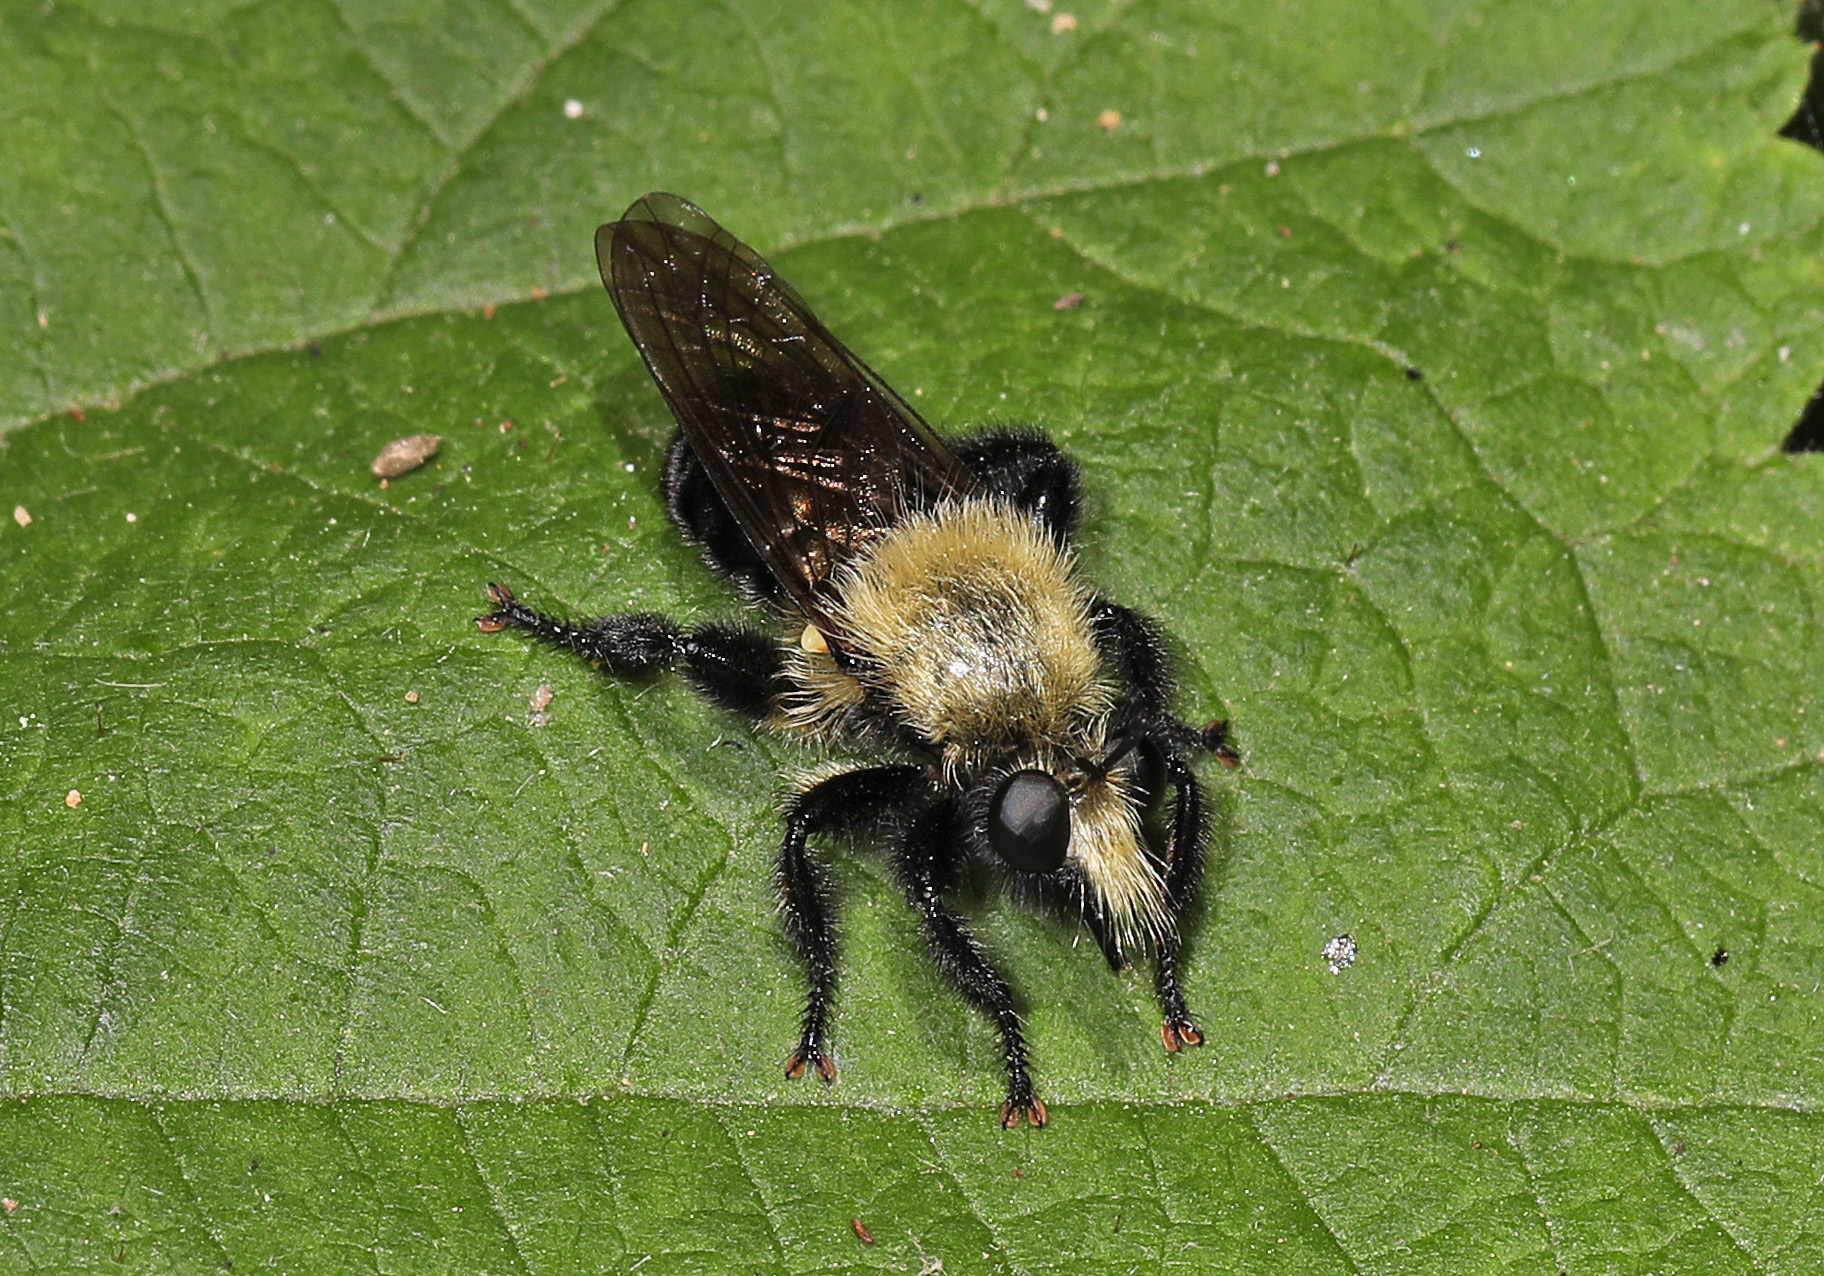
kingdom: Animalia
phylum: Arthropoda
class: Insecta
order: Diptera
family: Asilidae
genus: Laphria
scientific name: Laphria flavicollis
